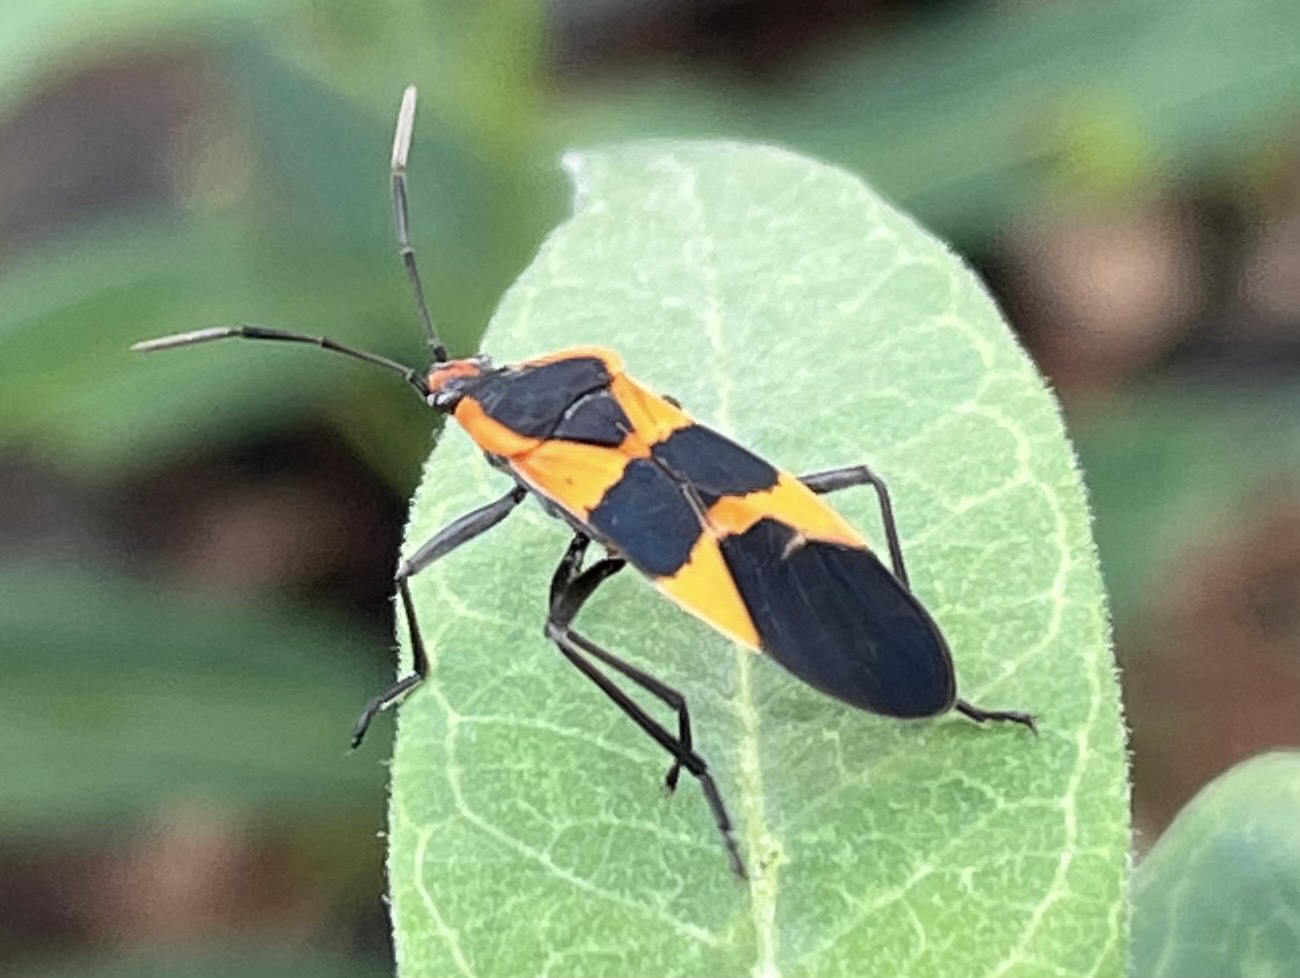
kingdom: Animalia
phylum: Arthropoda
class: Insecta
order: Hemiptera
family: Lygaeidae
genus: Oncopeltus
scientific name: Oncopeltus fasciatus
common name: Large milkweed bug
